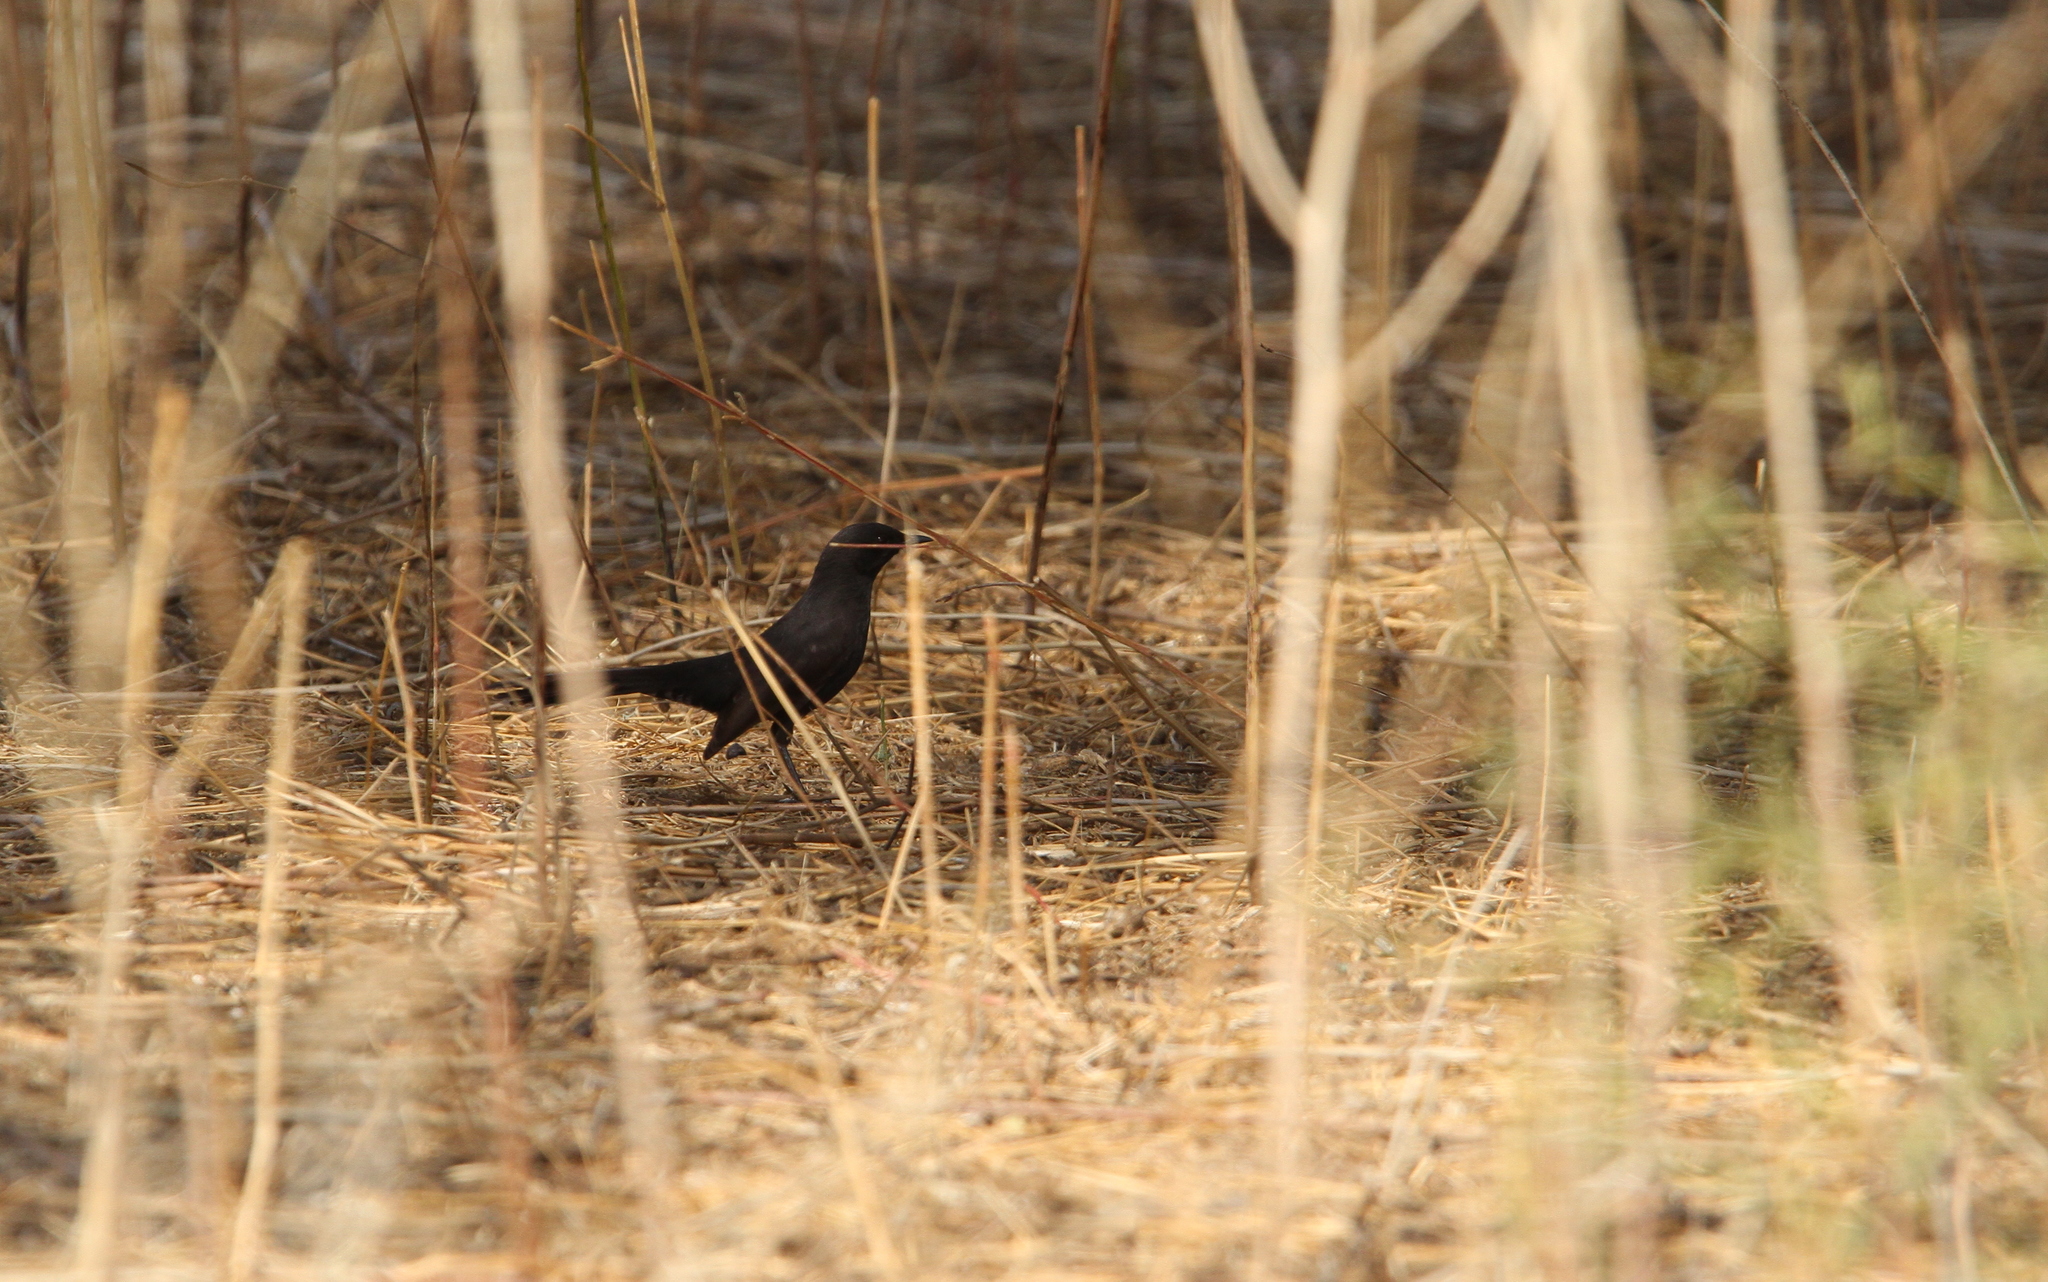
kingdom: Animalia
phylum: Chordata
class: Aves
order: Passeriformes
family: Muscicapidae
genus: Cercotrichas
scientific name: Cercotrichas podobe
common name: Black scrub robin
